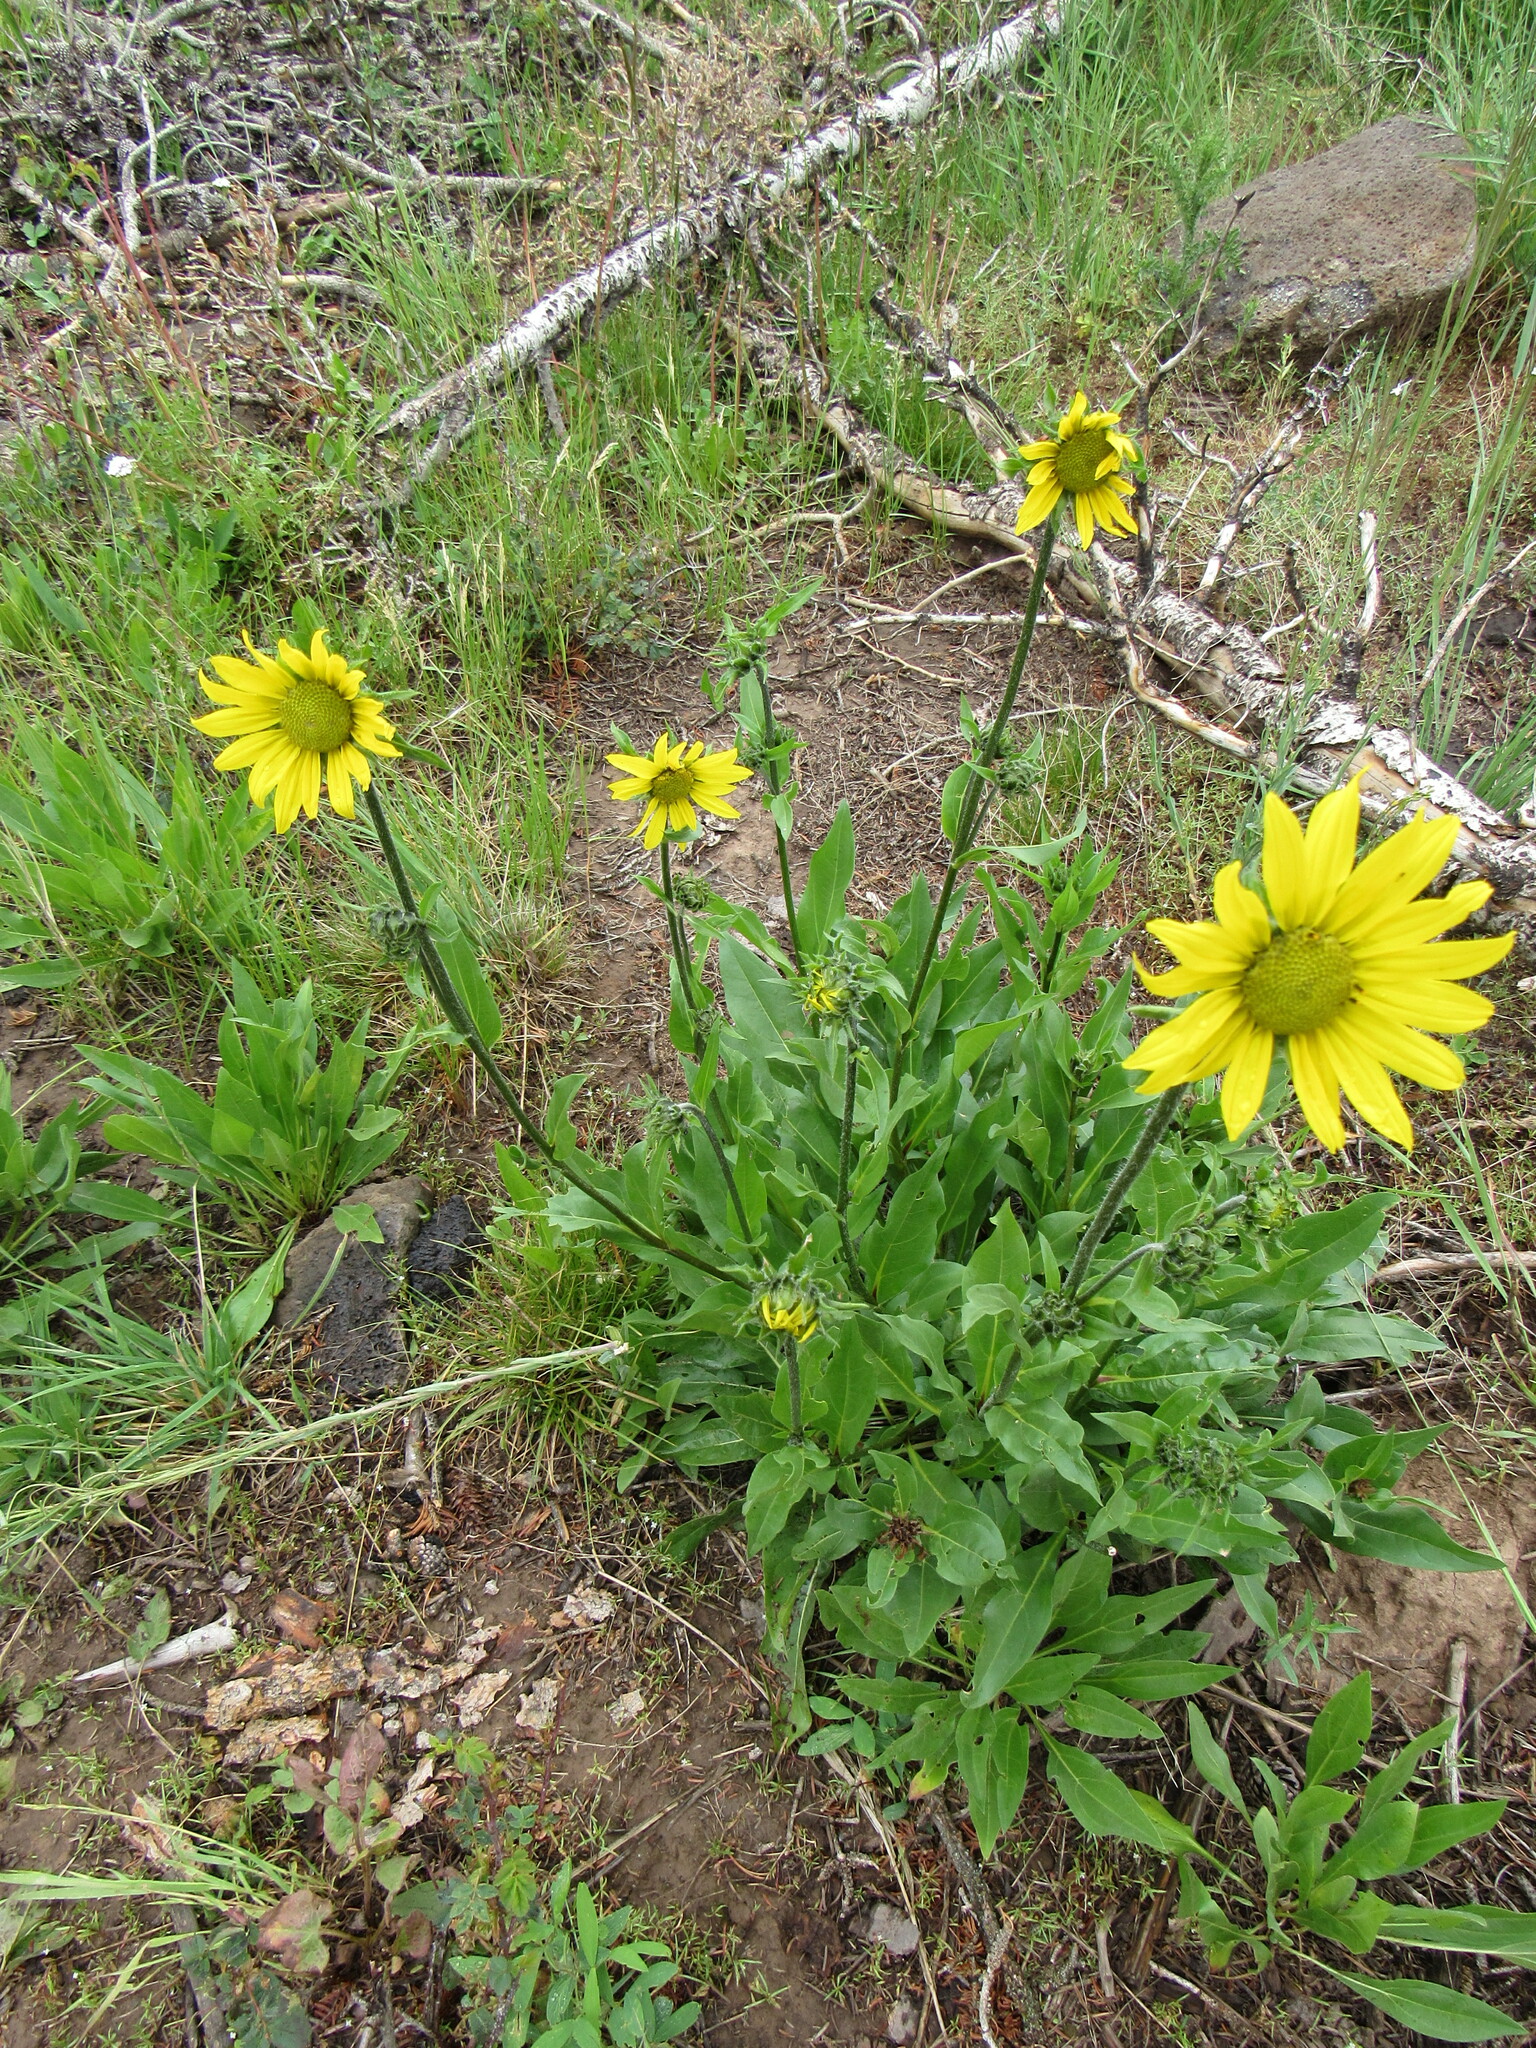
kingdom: Plantae
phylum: Tracheophyta
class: Magnoliopsida
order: Asterales
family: Asteraceae
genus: Helianthella
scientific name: Helianthella quinquenervis
